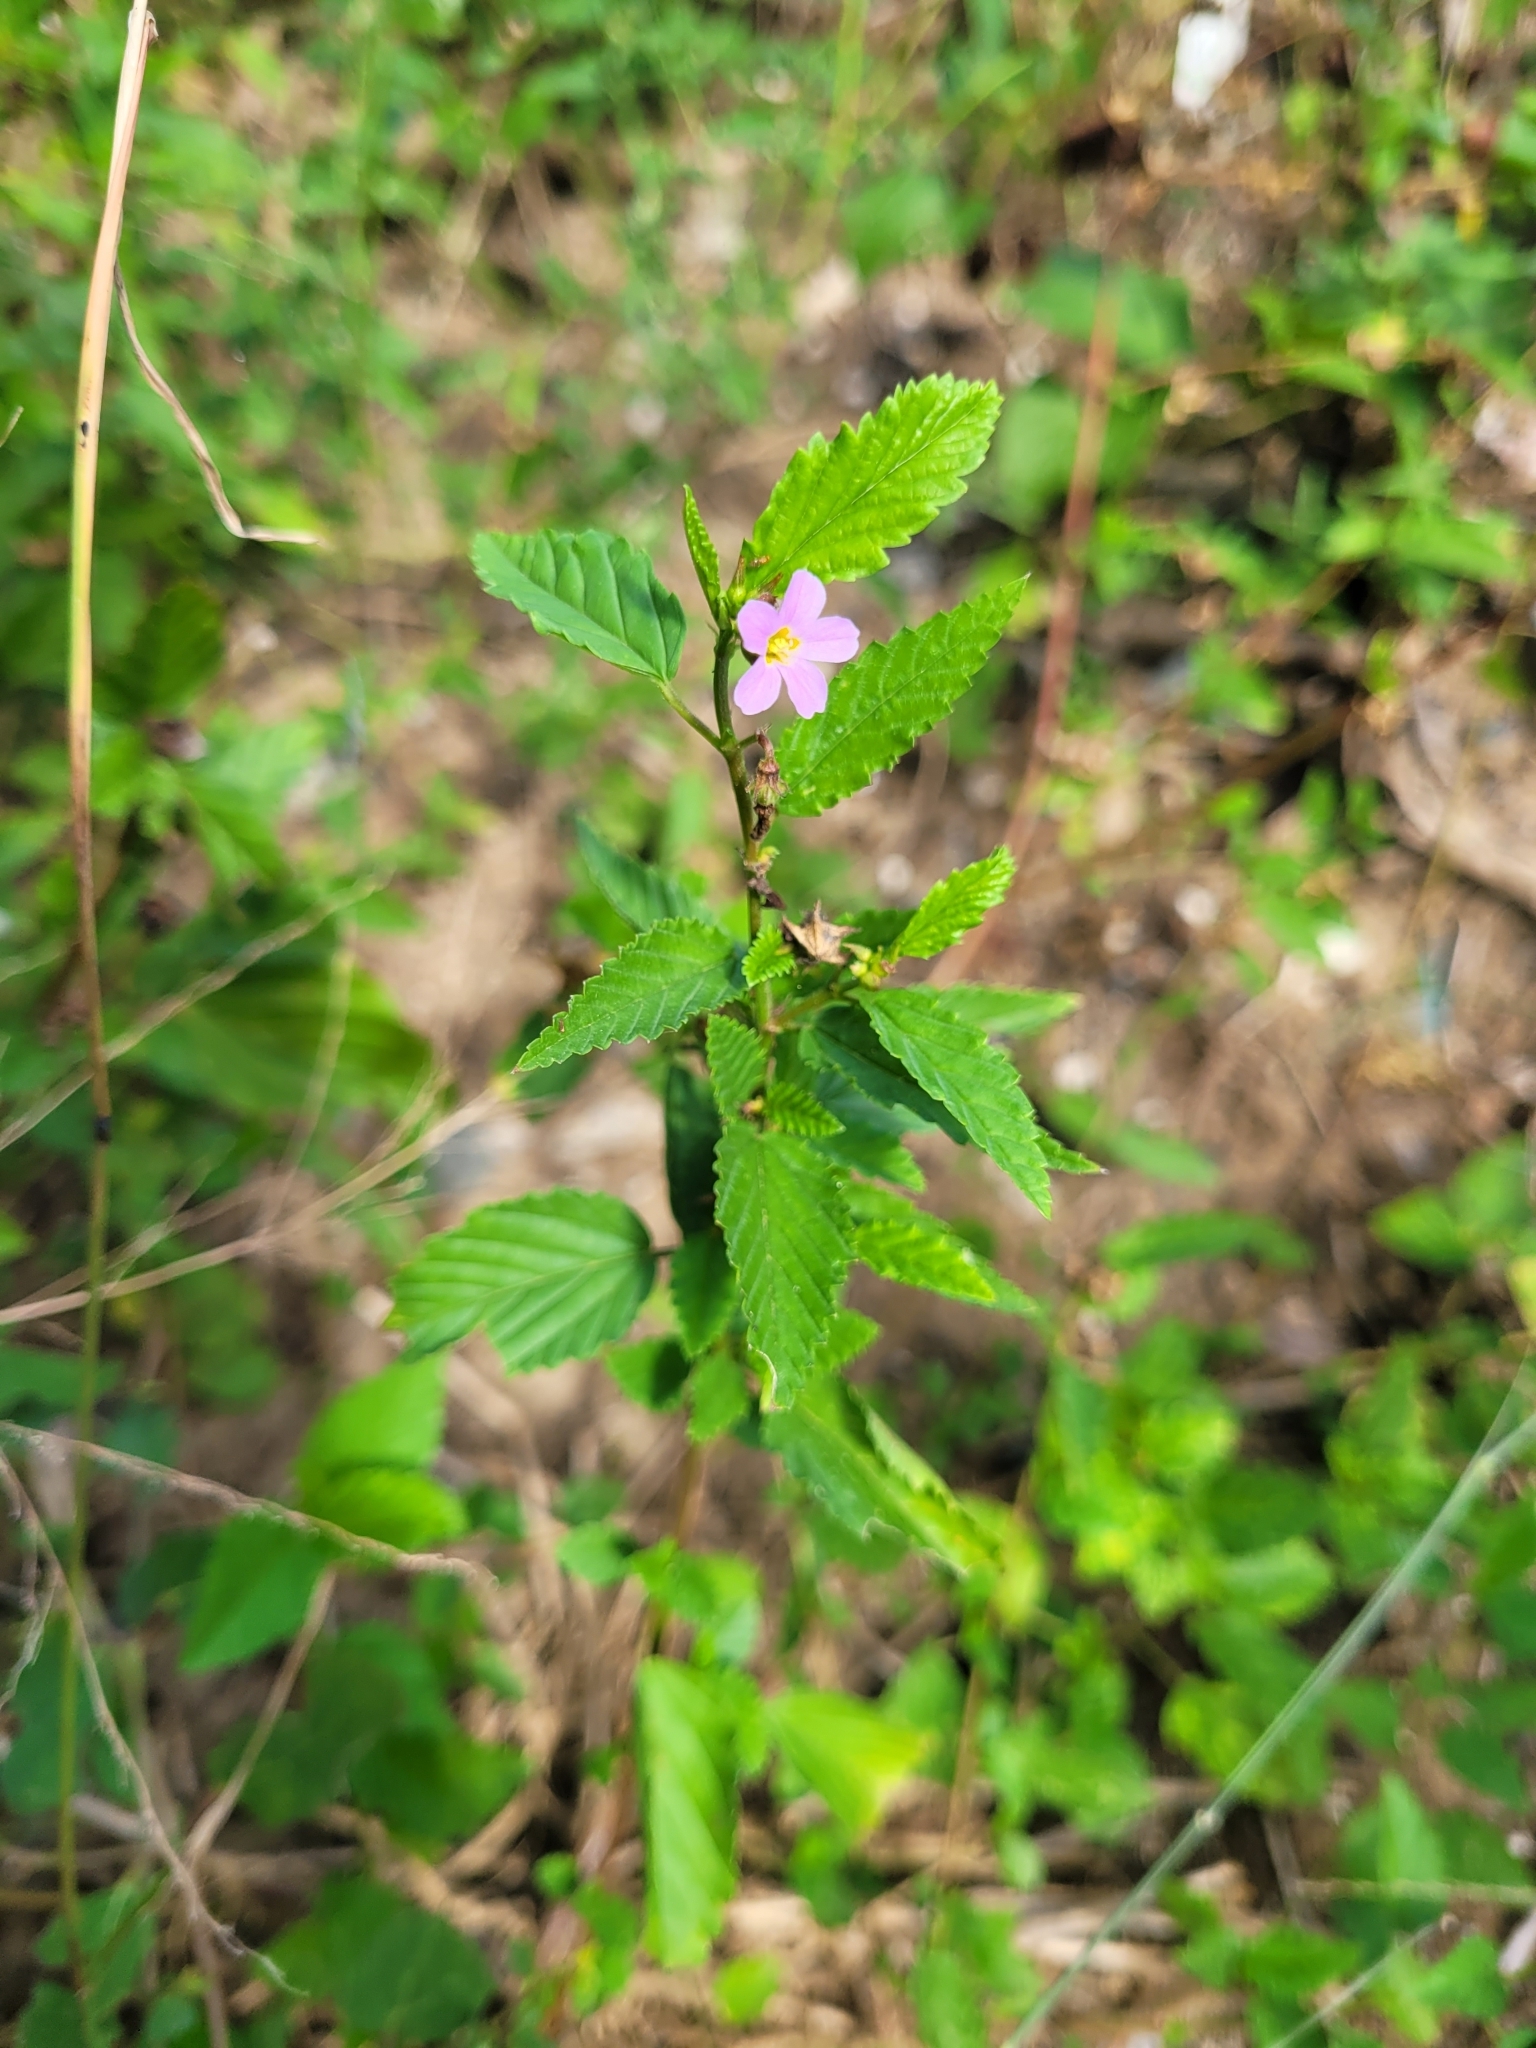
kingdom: Plantae
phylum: Tracheophyta
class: Magnoliopsida
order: Malvales
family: Malvaceae
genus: Melochia
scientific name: Melochia pyramidata
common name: Pyramidflower
